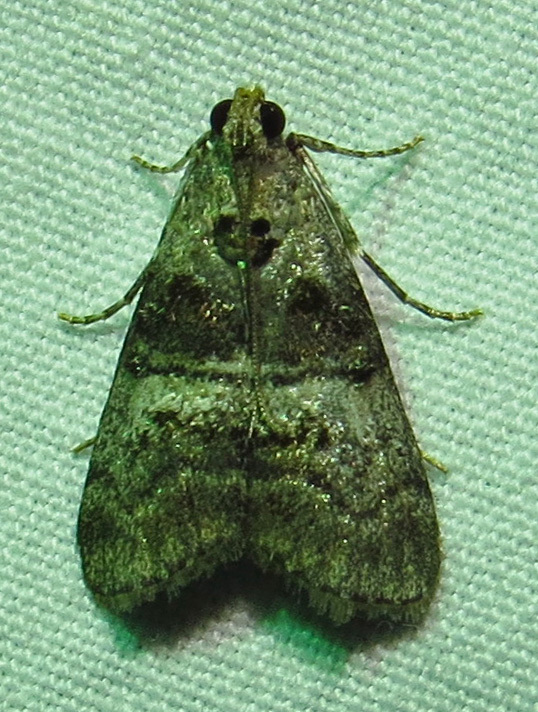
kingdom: Animalia
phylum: Arthropoda
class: Insecta
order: Lepidoptera
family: Pyralidae
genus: Pococera
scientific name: Pococera asperatella
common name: Maple webworm moth
